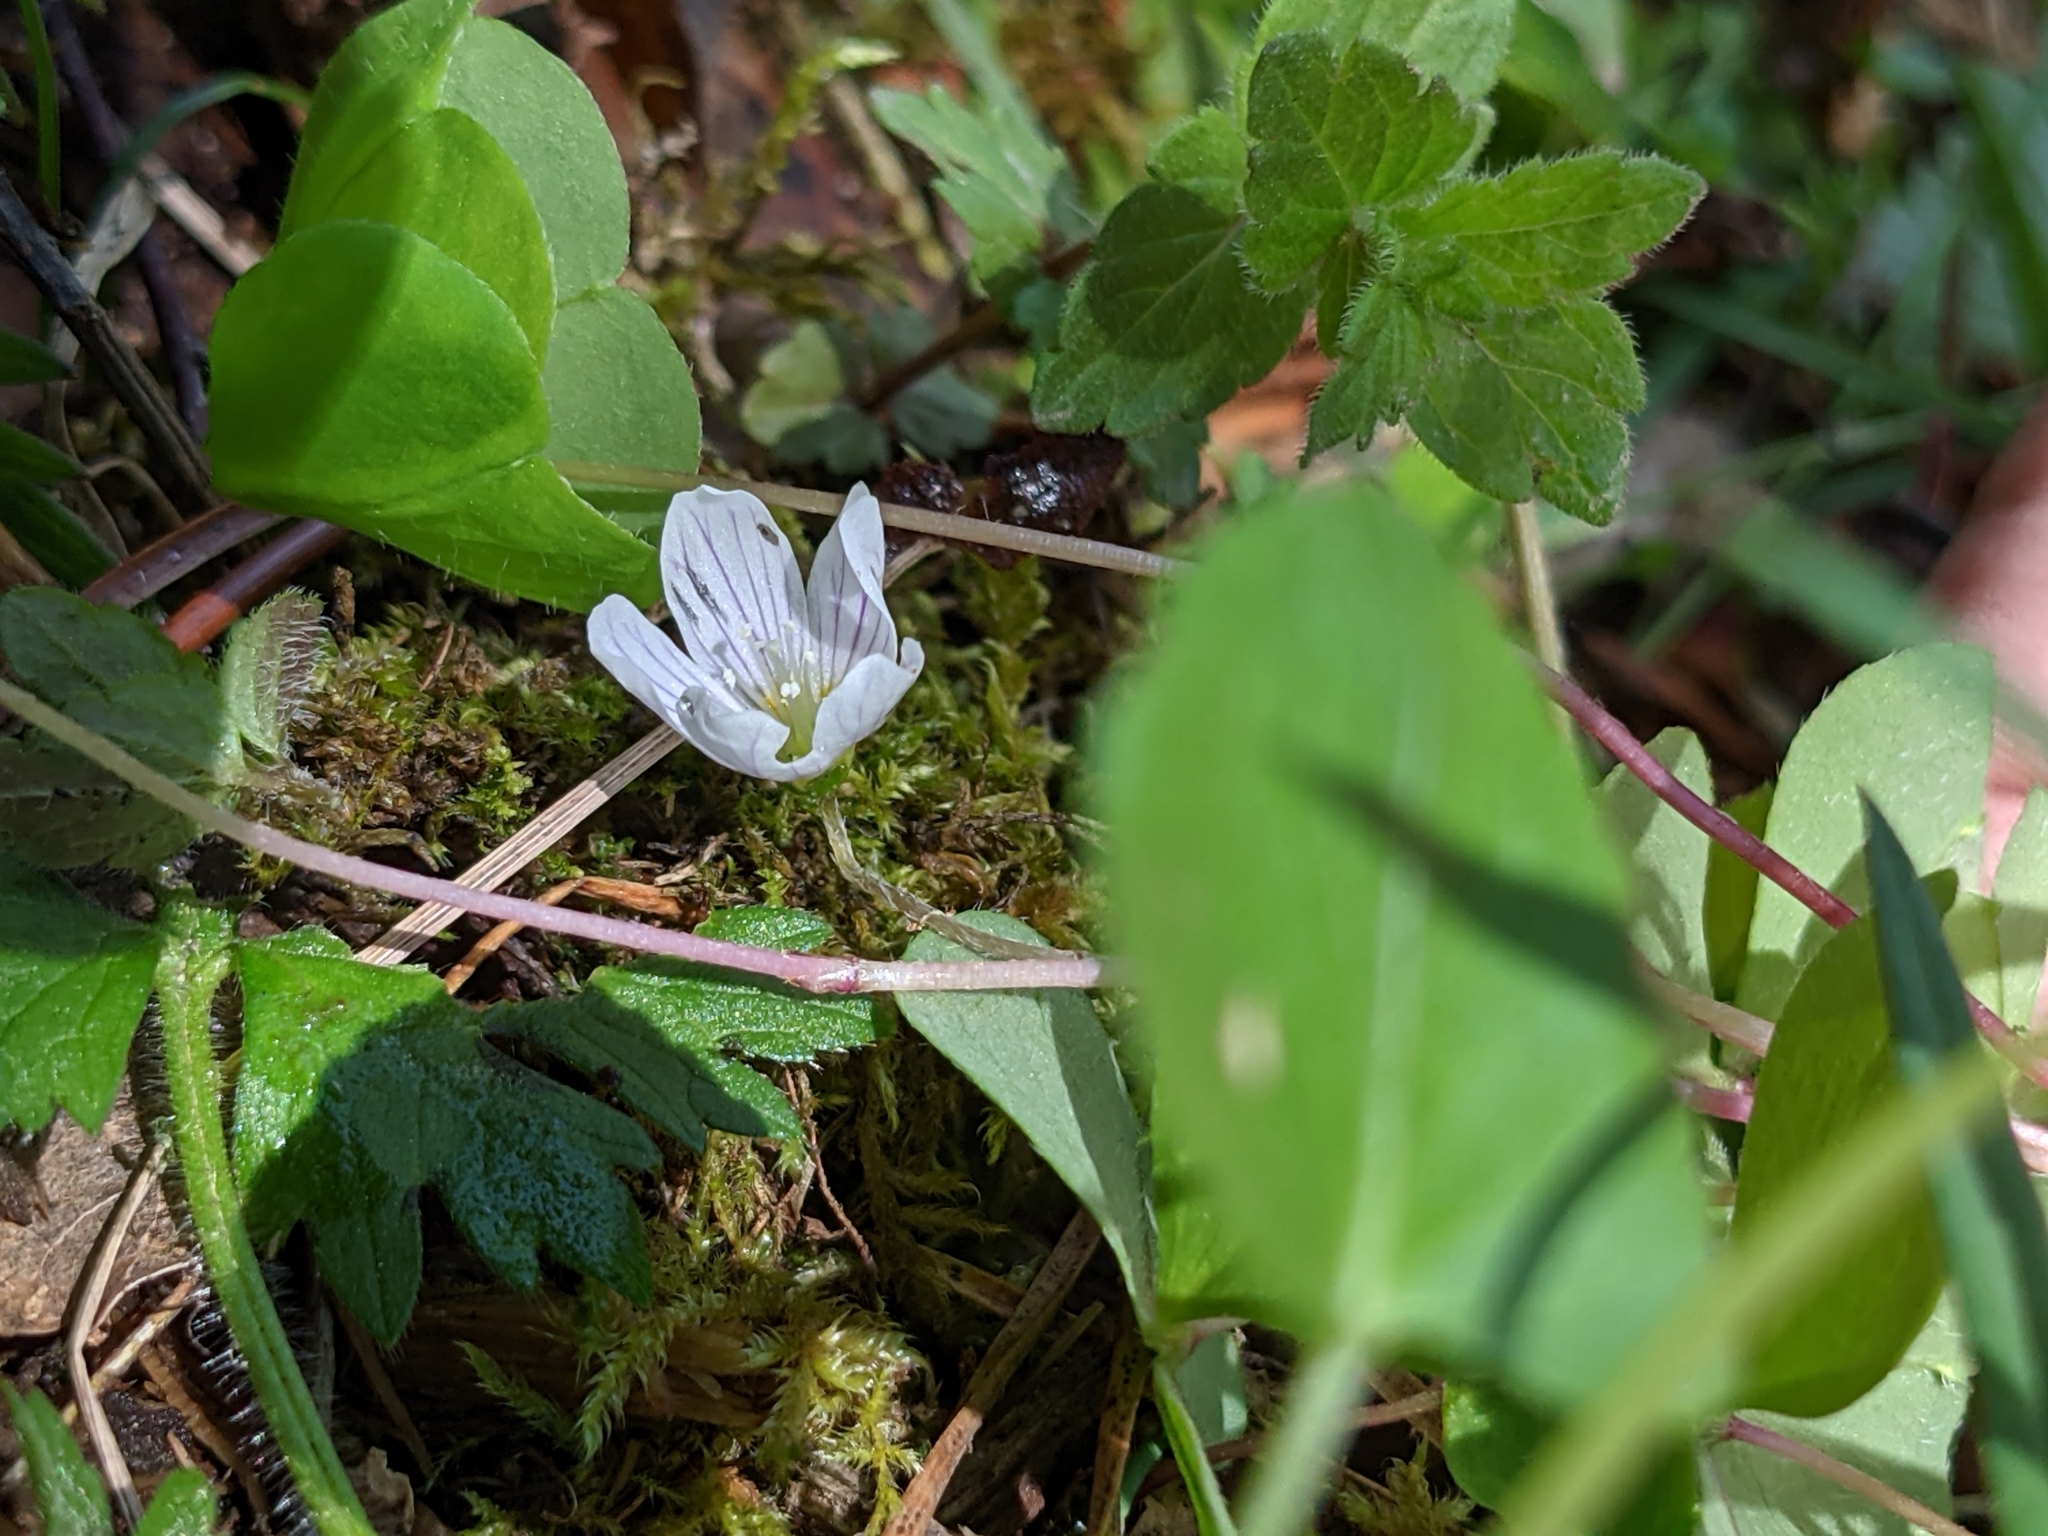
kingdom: Plantae
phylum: Tracheophyta
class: Magnoliopsida
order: Oxalidales
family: Oxalidaceae
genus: Oxalis
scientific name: Oxalis acetosella
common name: Wood-sorrel
